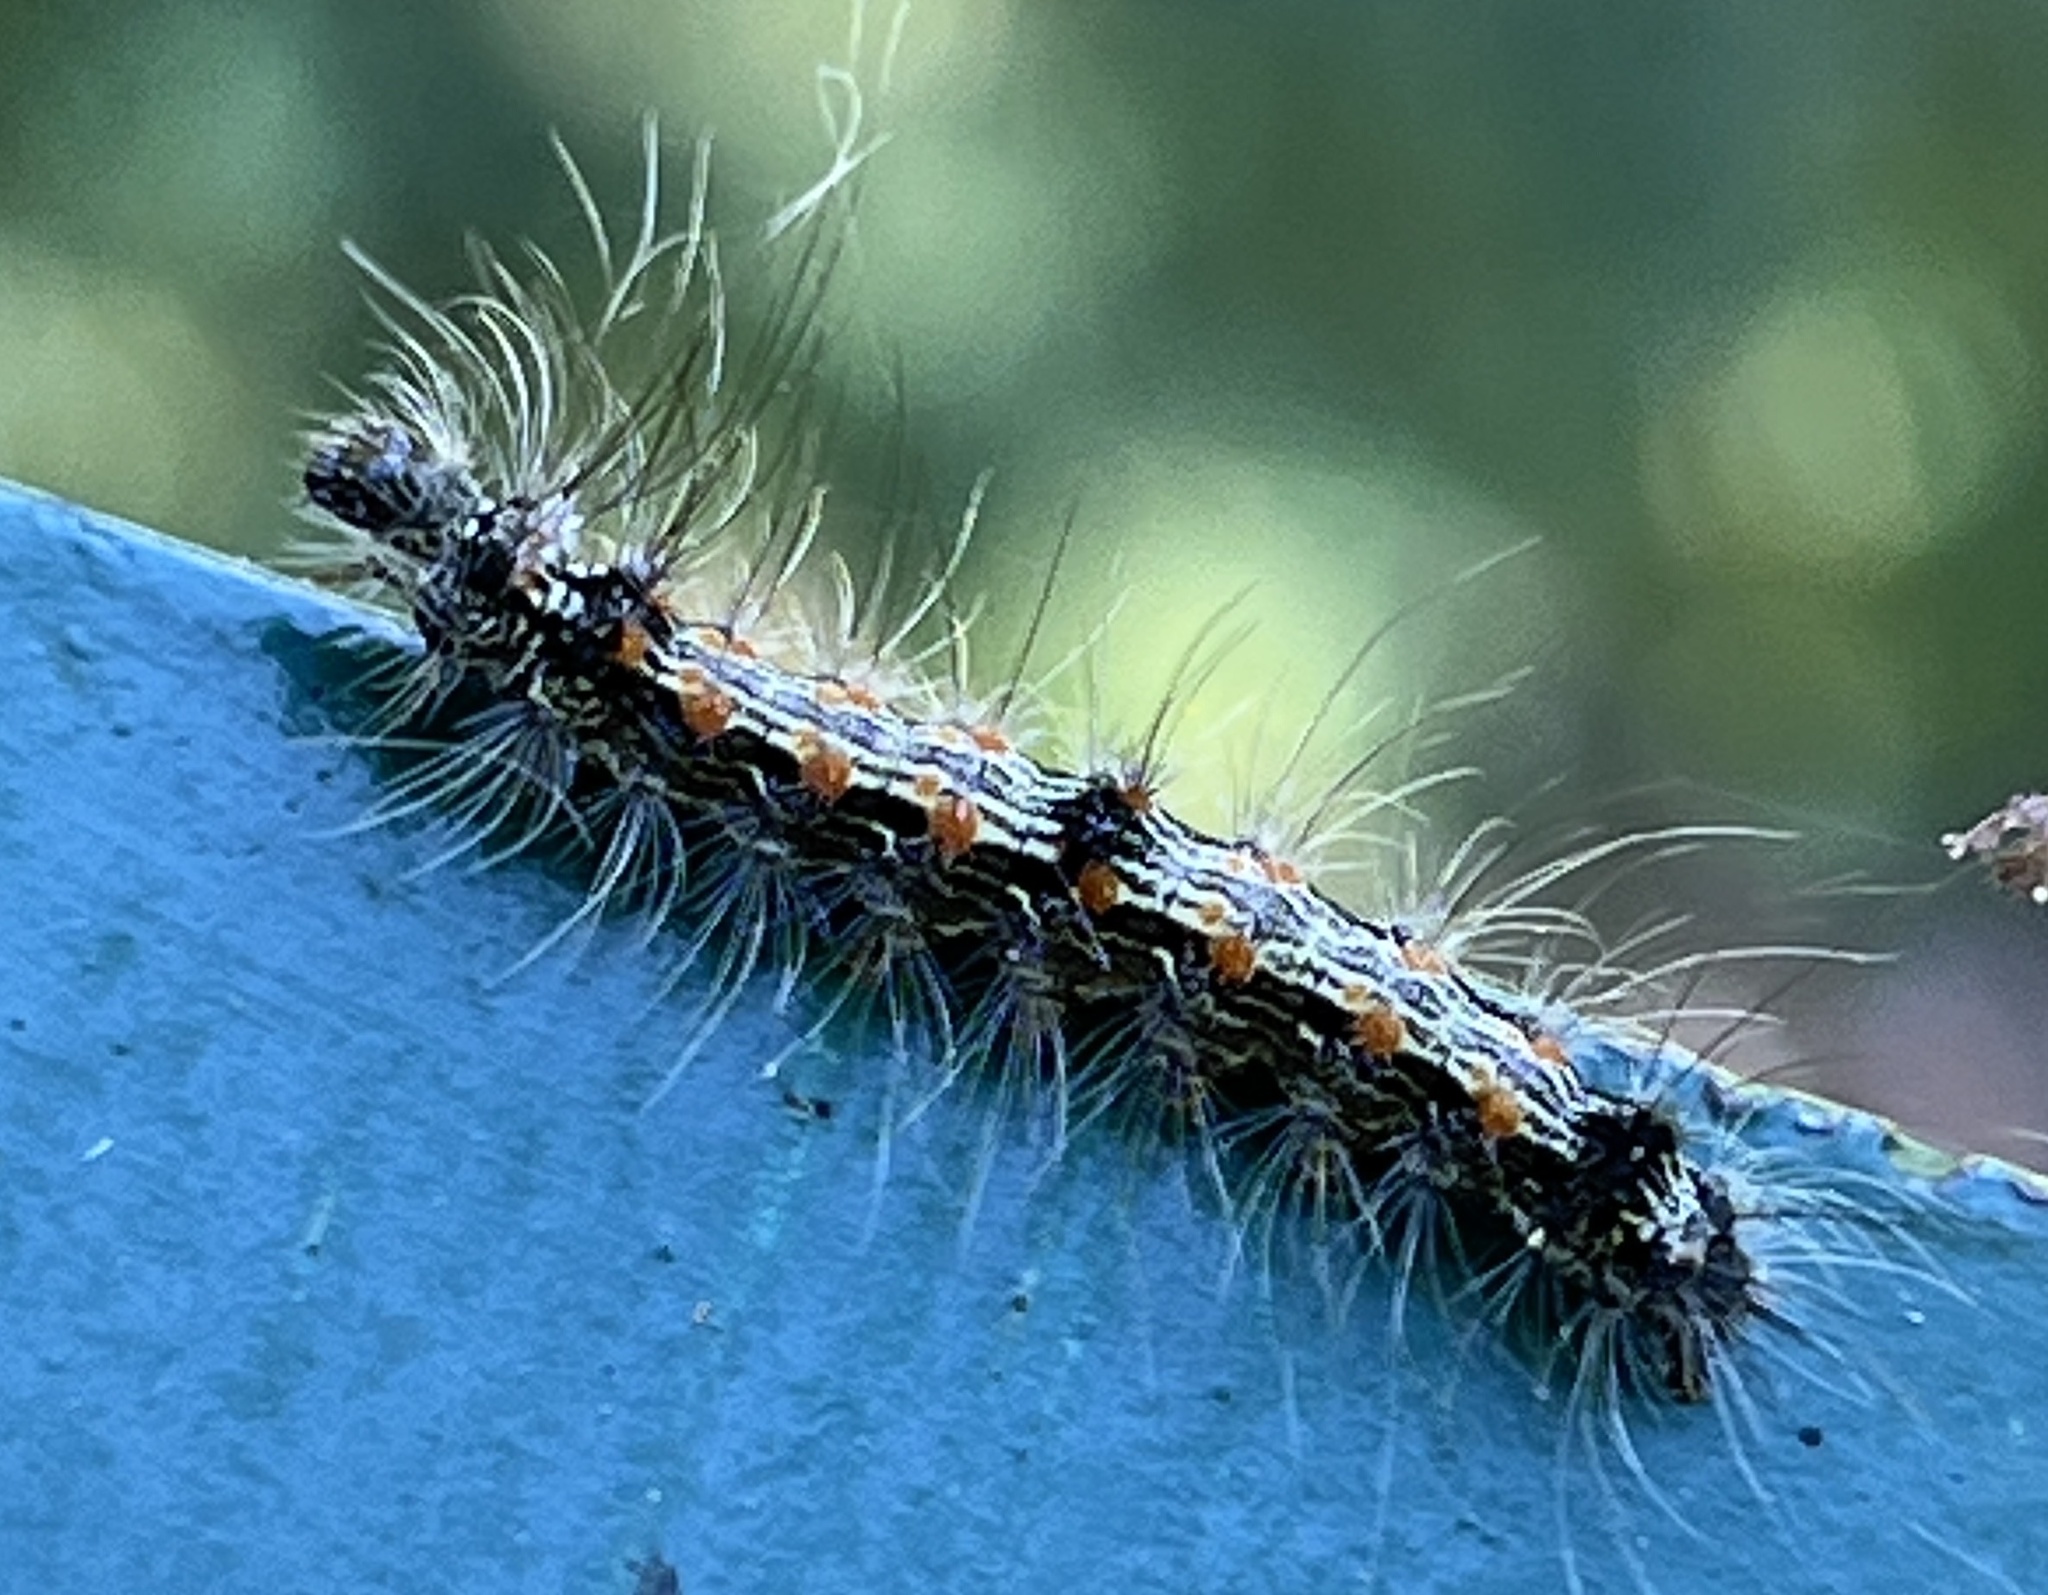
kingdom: Animalia
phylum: Arthropoda
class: Insecta
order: Lepidoptera
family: Erebidae
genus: Lithosia
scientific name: Lithosia quadra
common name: Four-spotted footman
